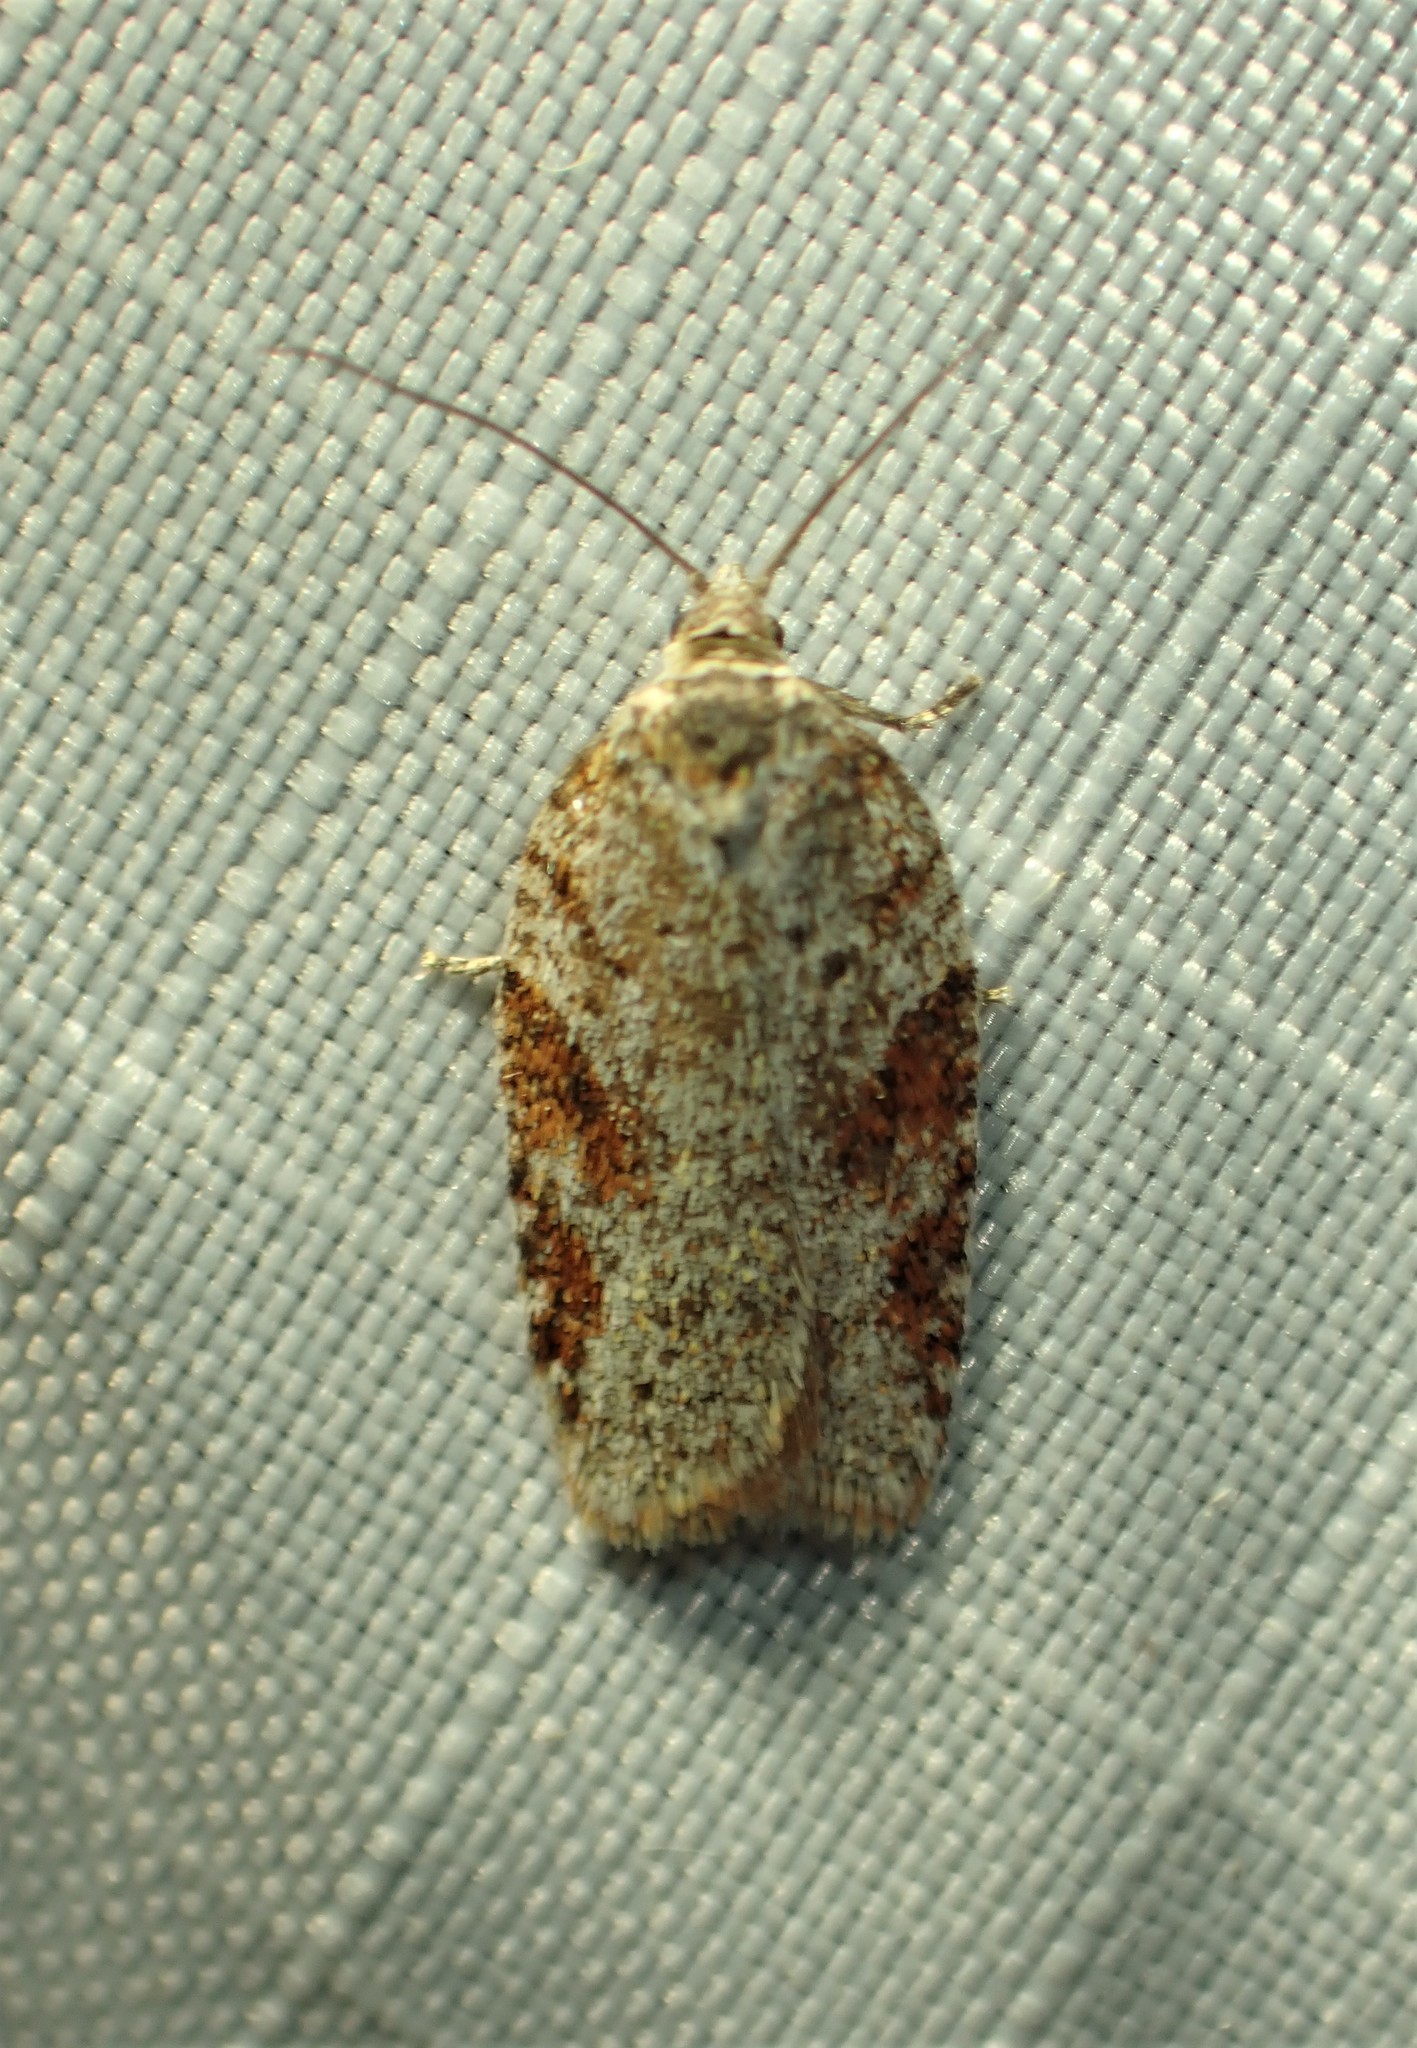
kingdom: Animalia
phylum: Arthropoda
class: Insecta
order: Lepidoptera
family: Tortricidae
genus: Acleris
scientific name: Acleris oxycoccana
